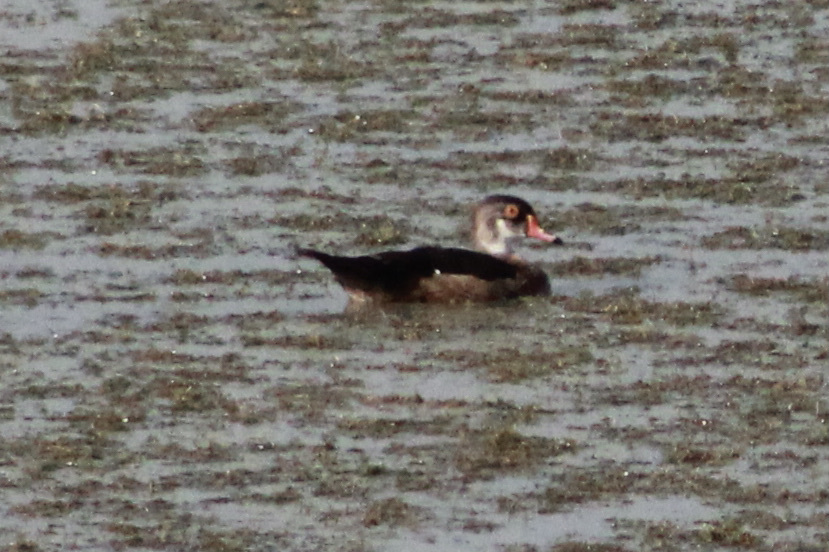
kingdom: Animalia
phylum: Chordata
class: Aves
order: Anseriformes
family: Anatidae
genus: Aix
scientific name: Aix sponsa
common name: Wood duck
